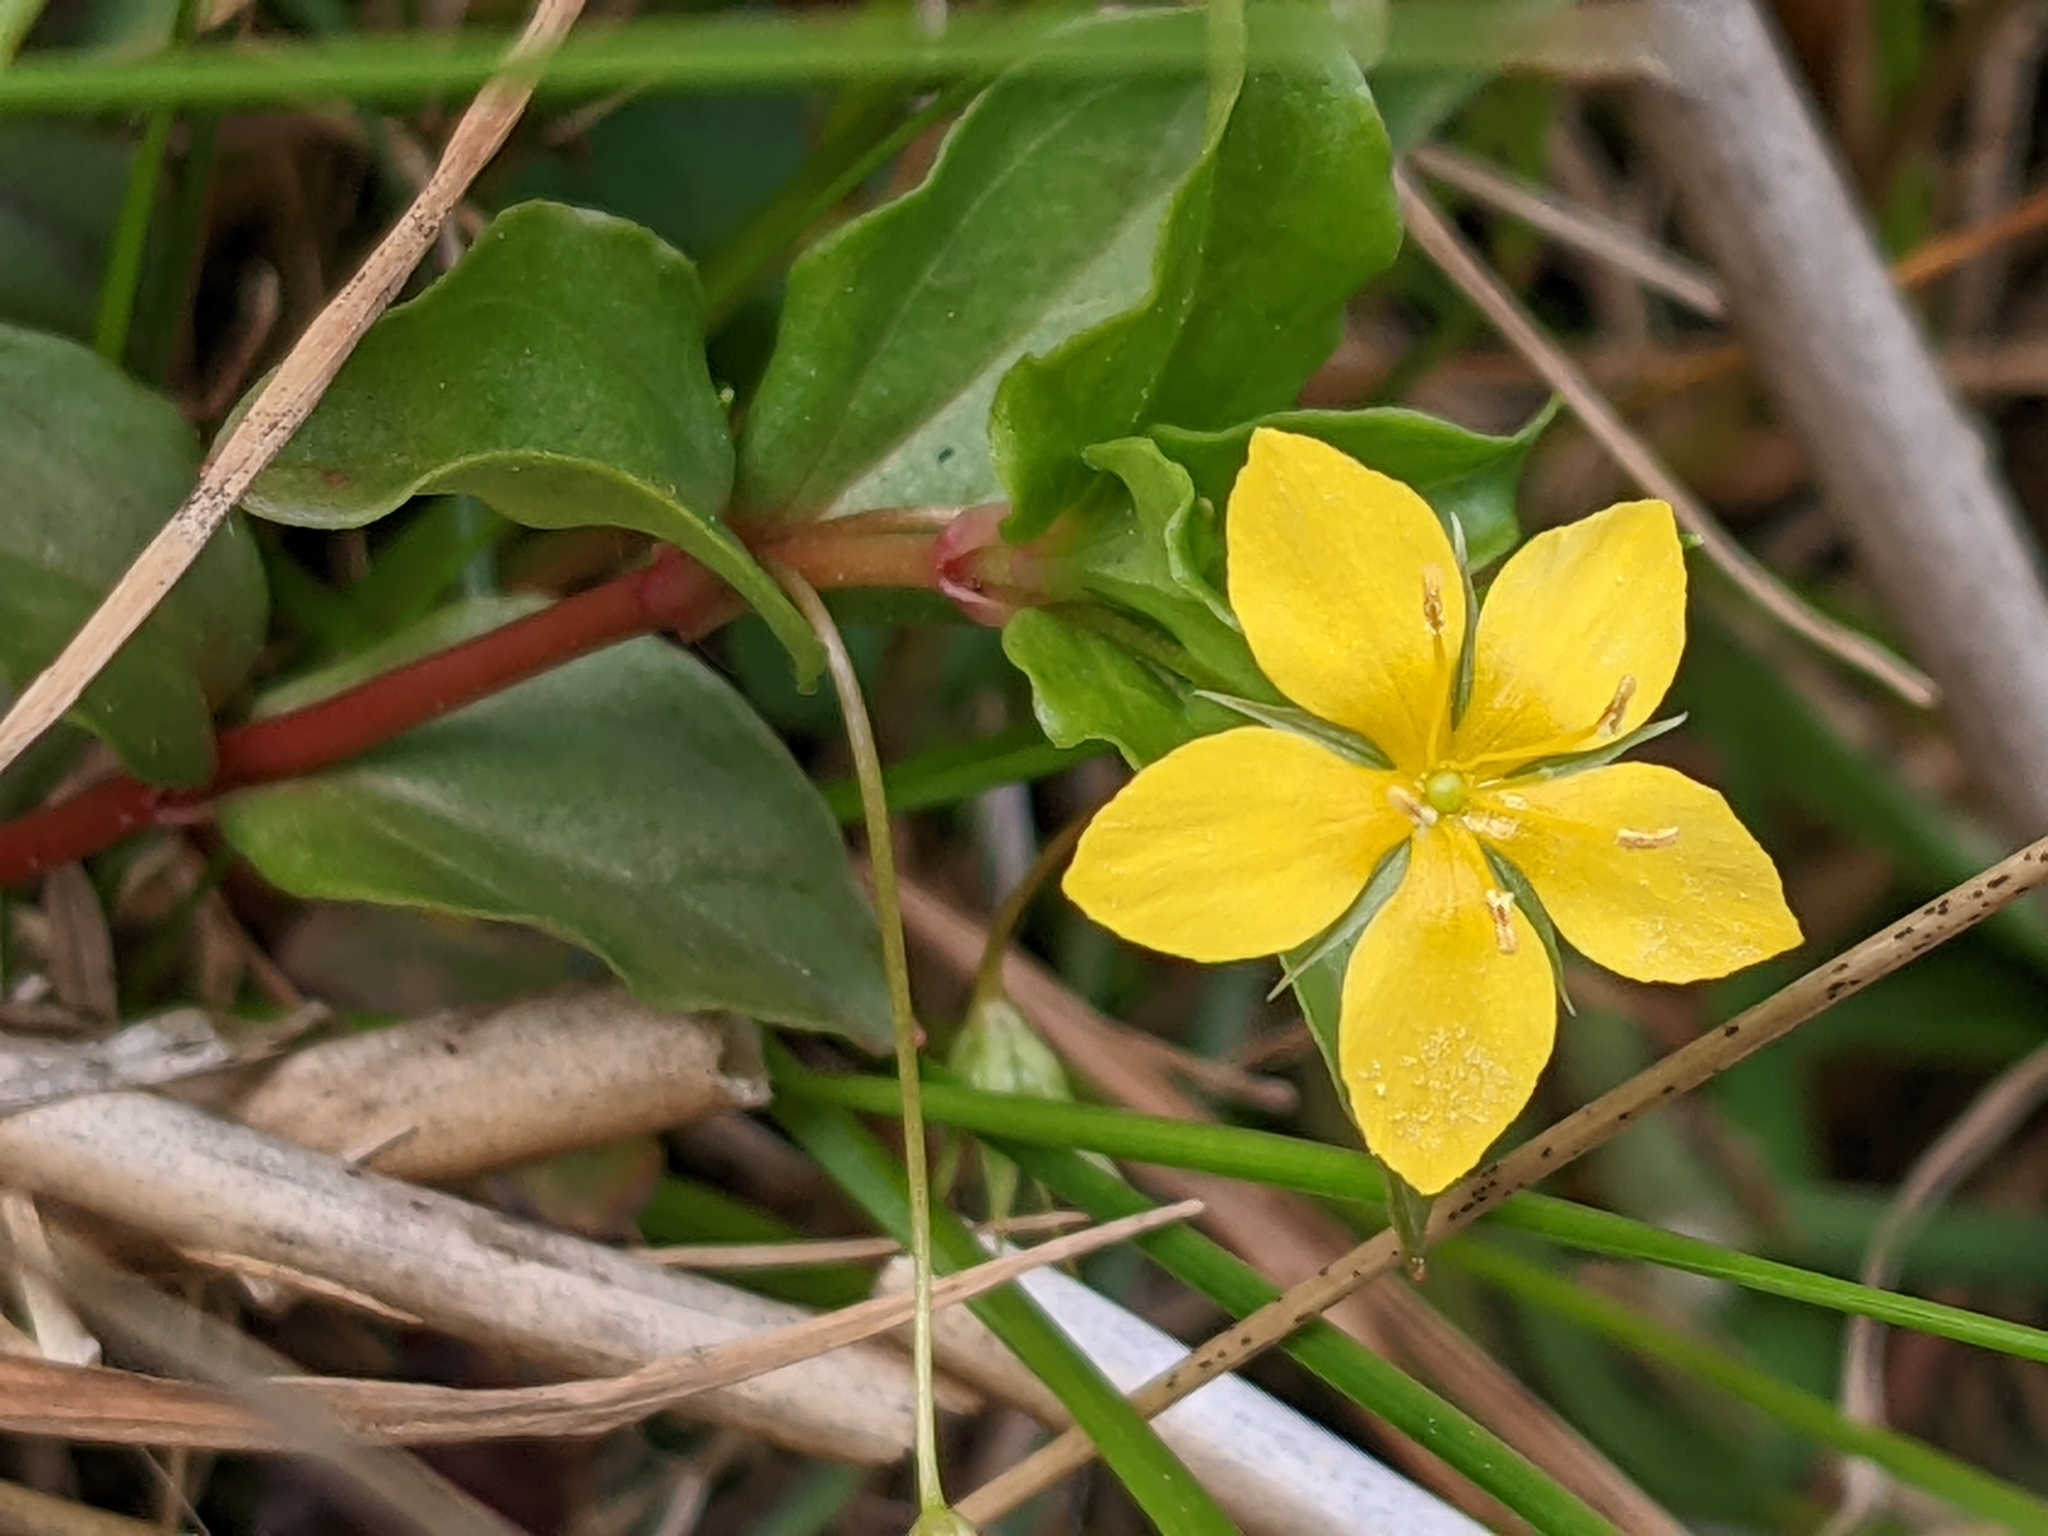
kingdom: Plantae
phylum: Tracheophyta
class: Magnoliopsida
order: Ericales
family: Primulaceae
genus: Lysimachia
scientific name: Lysimachia nemorum
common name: Yellow pimpernel
